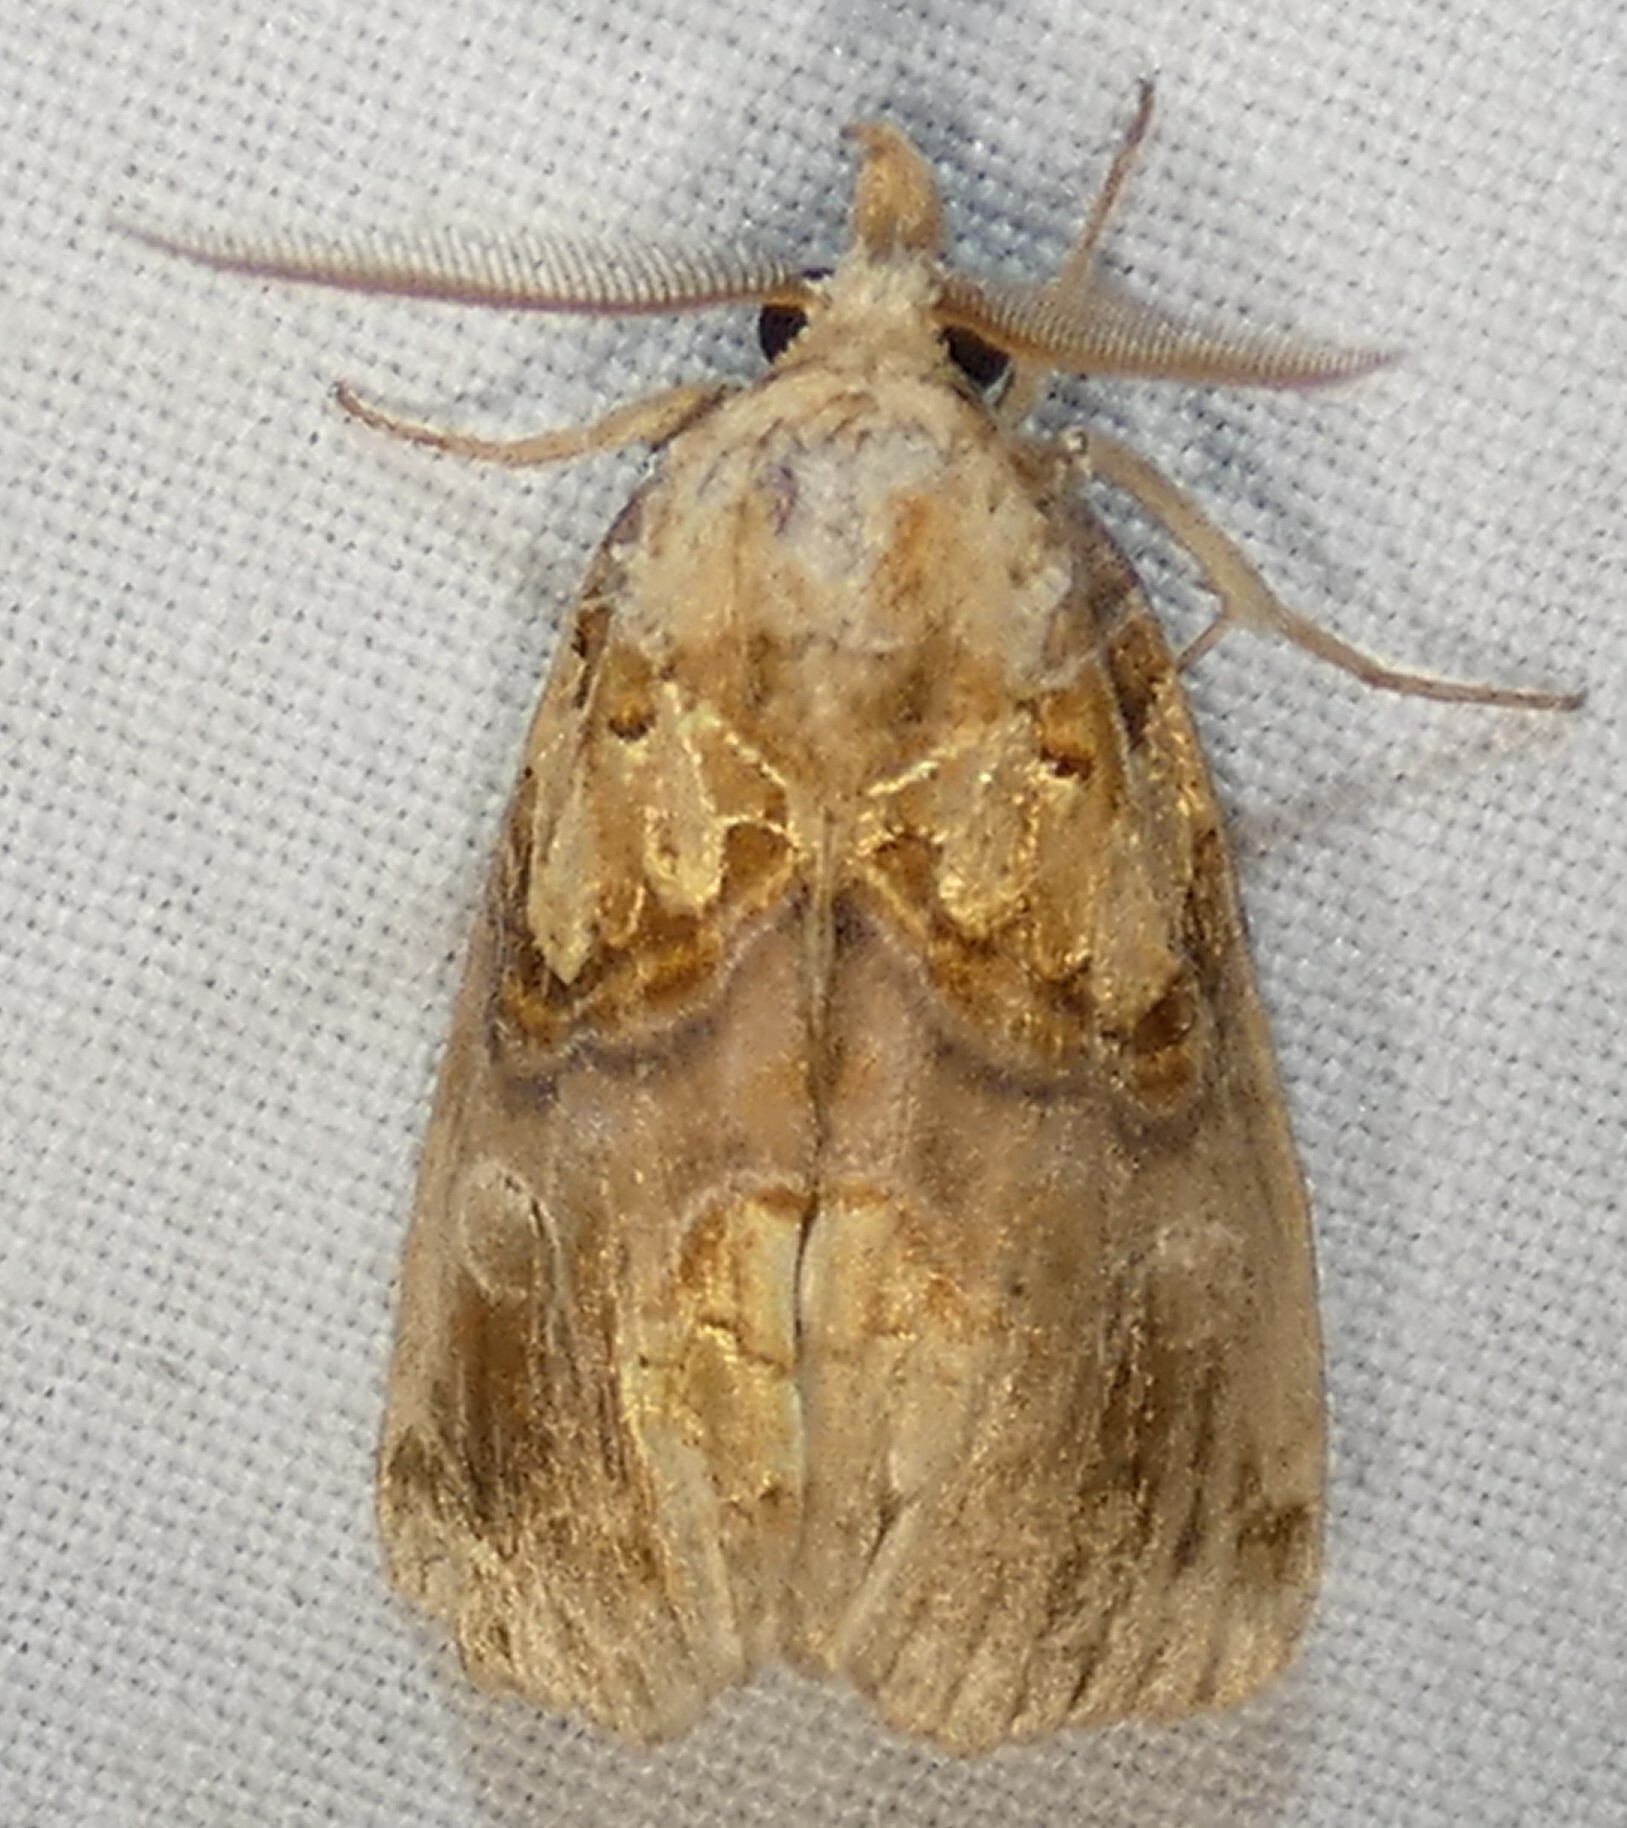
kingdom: Animalia
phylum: Arthropoda
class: Insecta
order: Lepidoptera
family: Erebidae
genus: Plusiodonta
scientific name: Plusiodonta compressipalpis
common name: Moonseed moth
